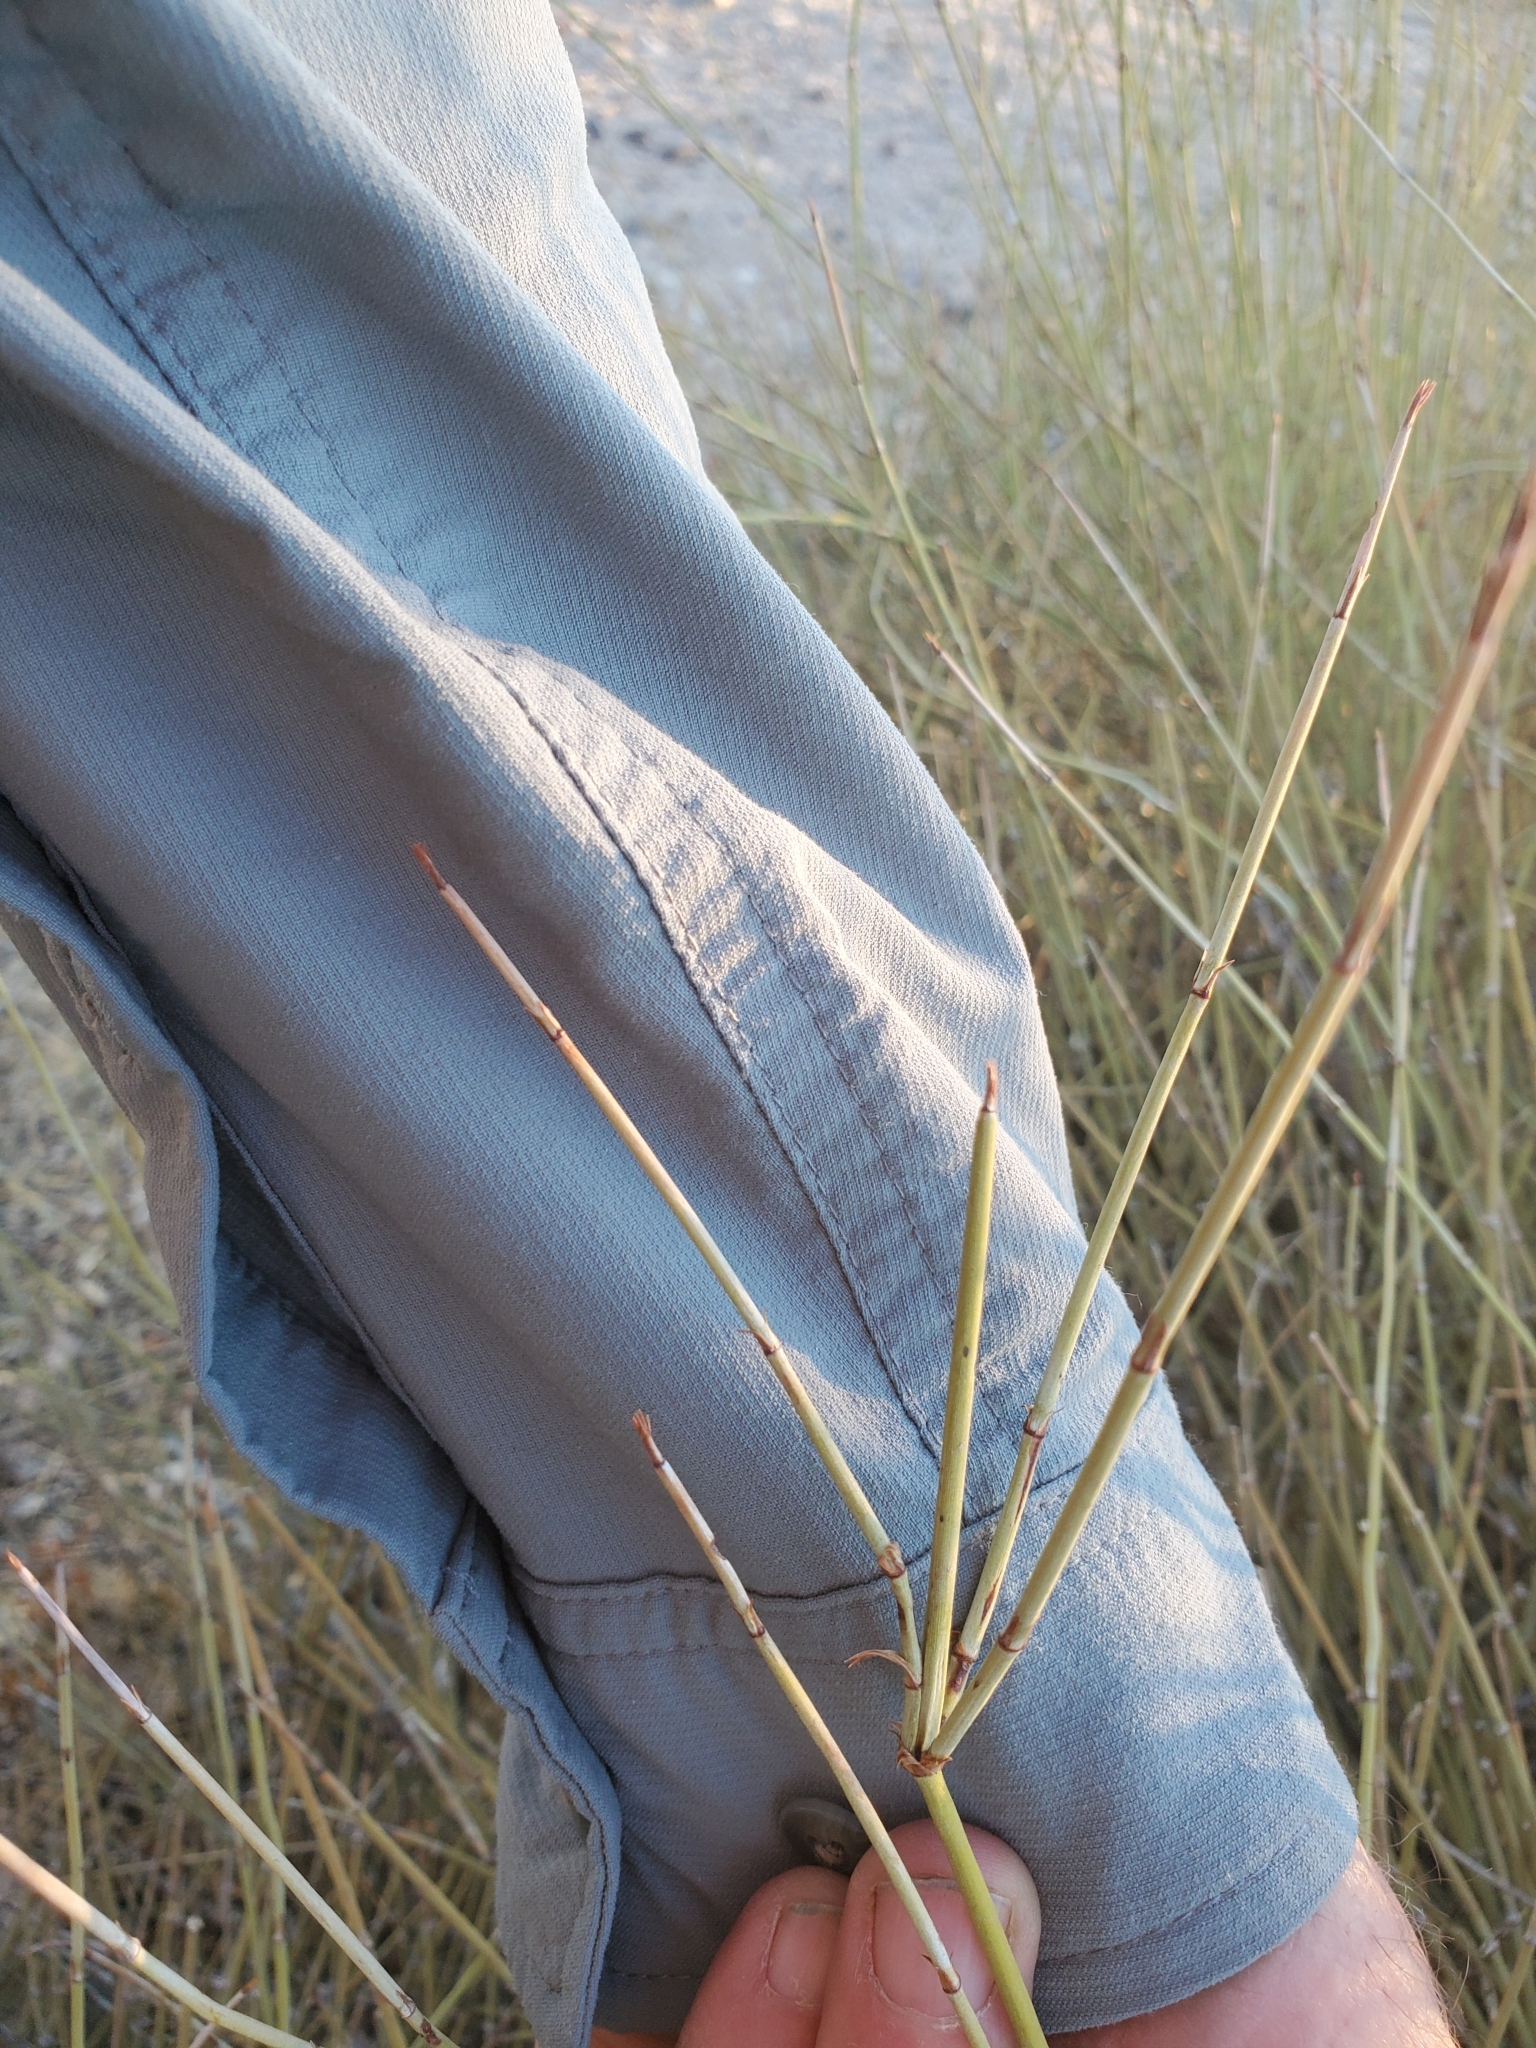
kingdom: Plantae
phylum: Tracheophyta
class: Gnetopsida
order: Ephedrales
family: Ephedraceae
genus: Ephedra
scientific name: Ephedra trifurca
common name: Mexican-tea
